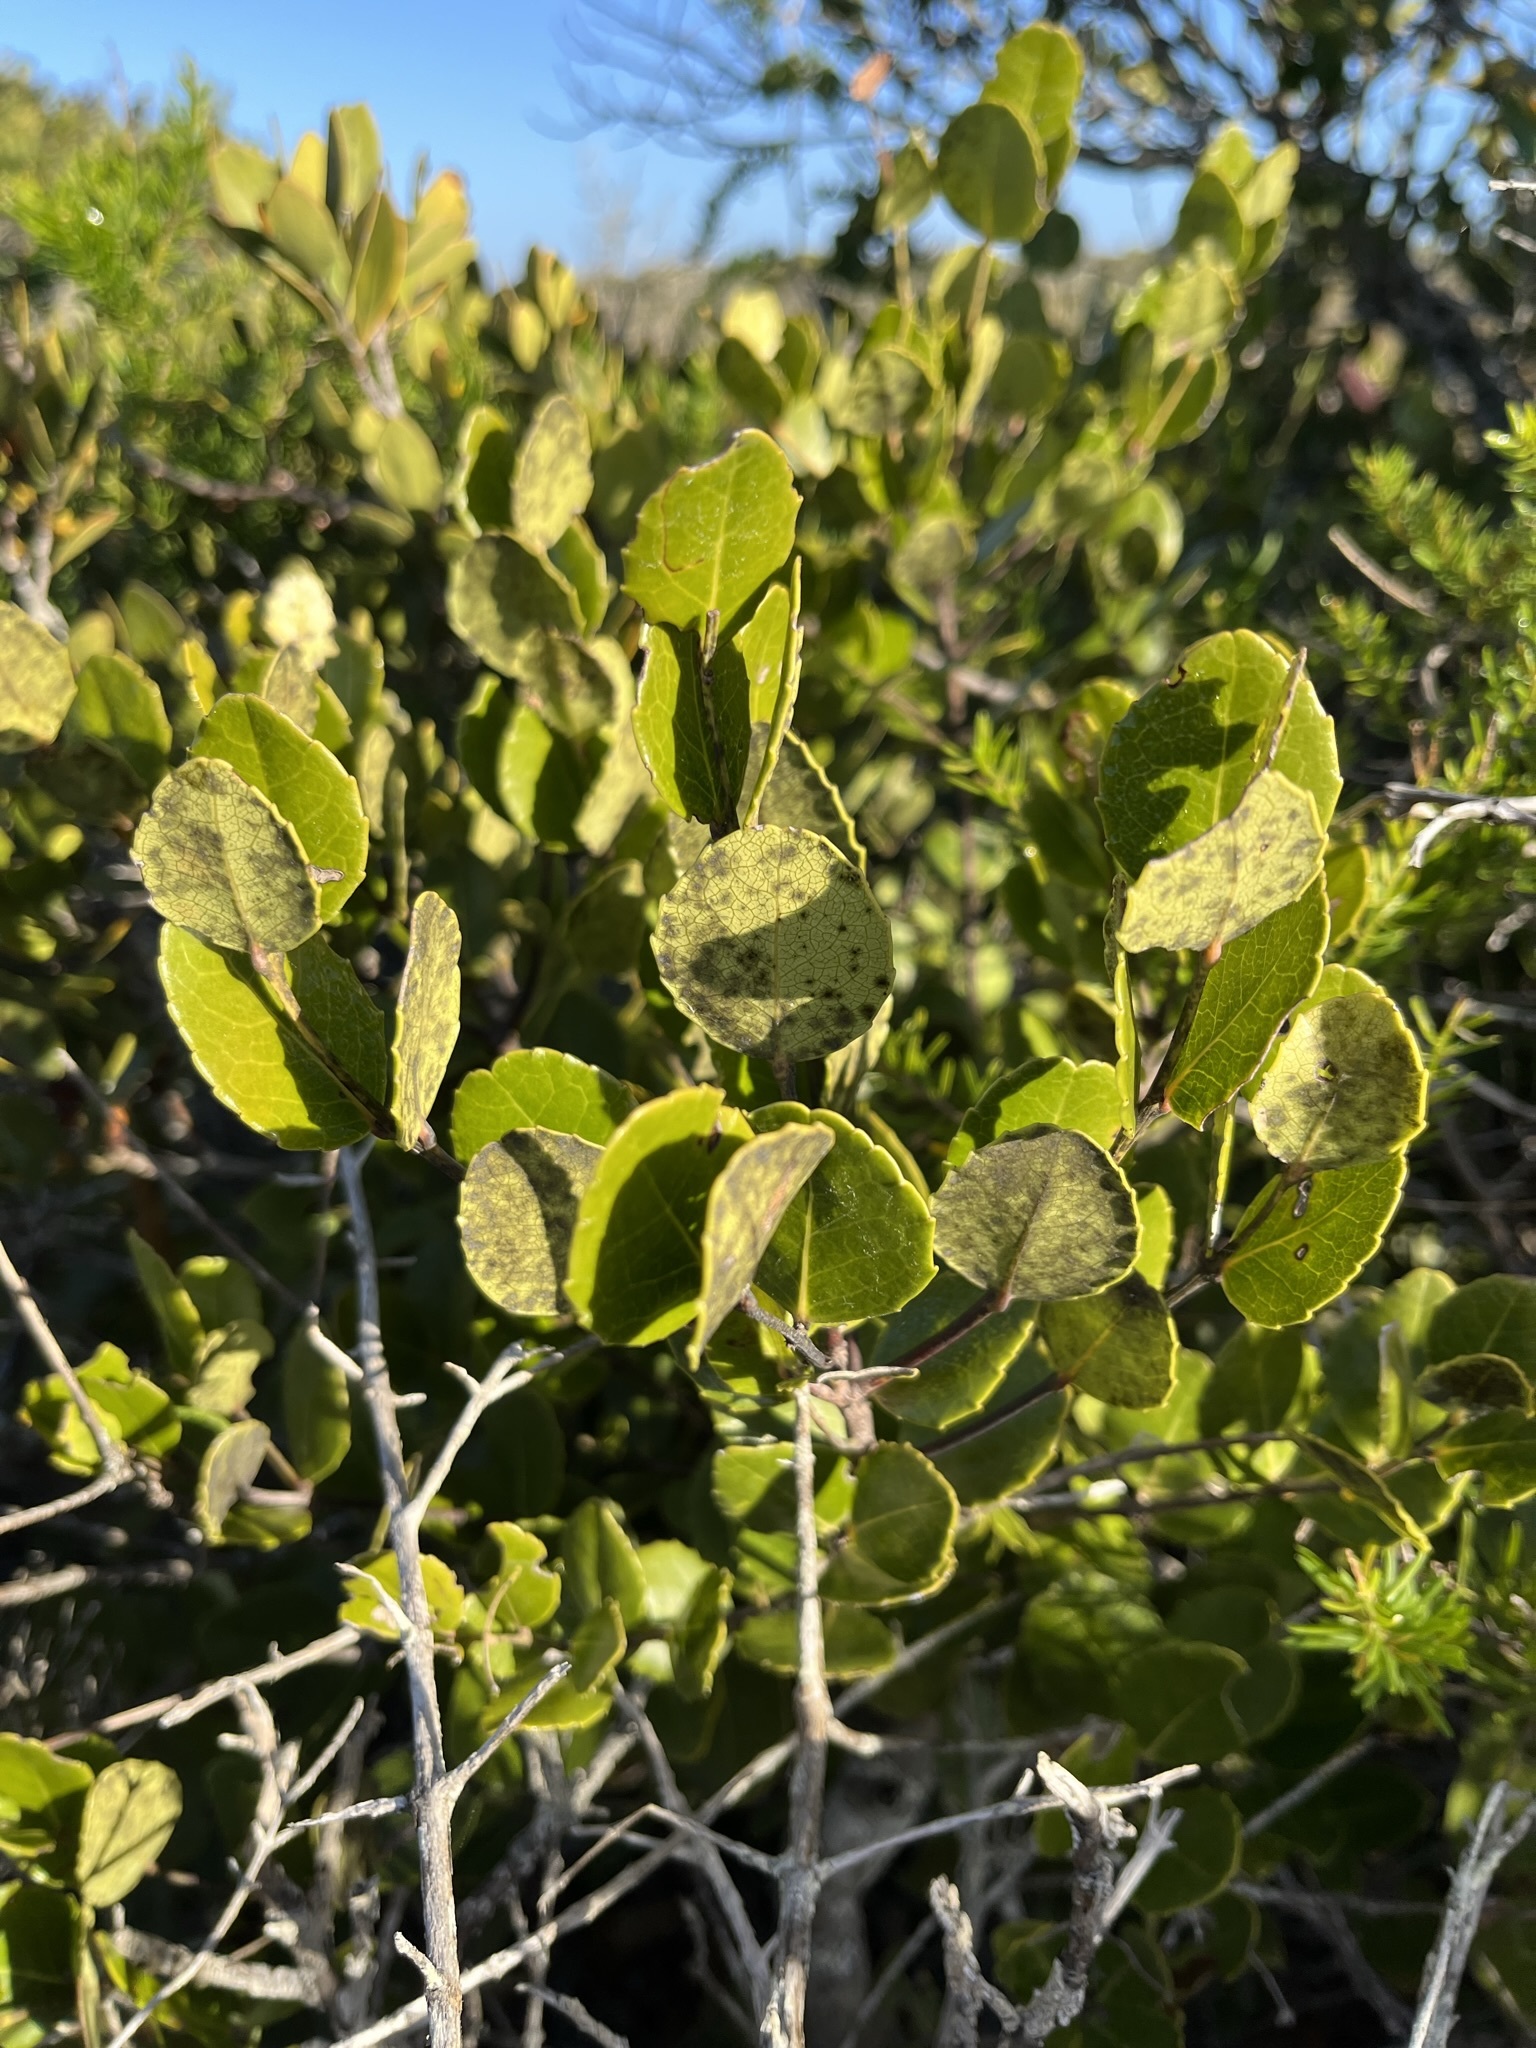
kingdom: Plantae
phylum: Tracheophyta
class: Magnoliopsida
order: Celastrales
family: Celastraceae
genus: Cassine
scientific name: Cassine peragua
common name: Cape saffron
